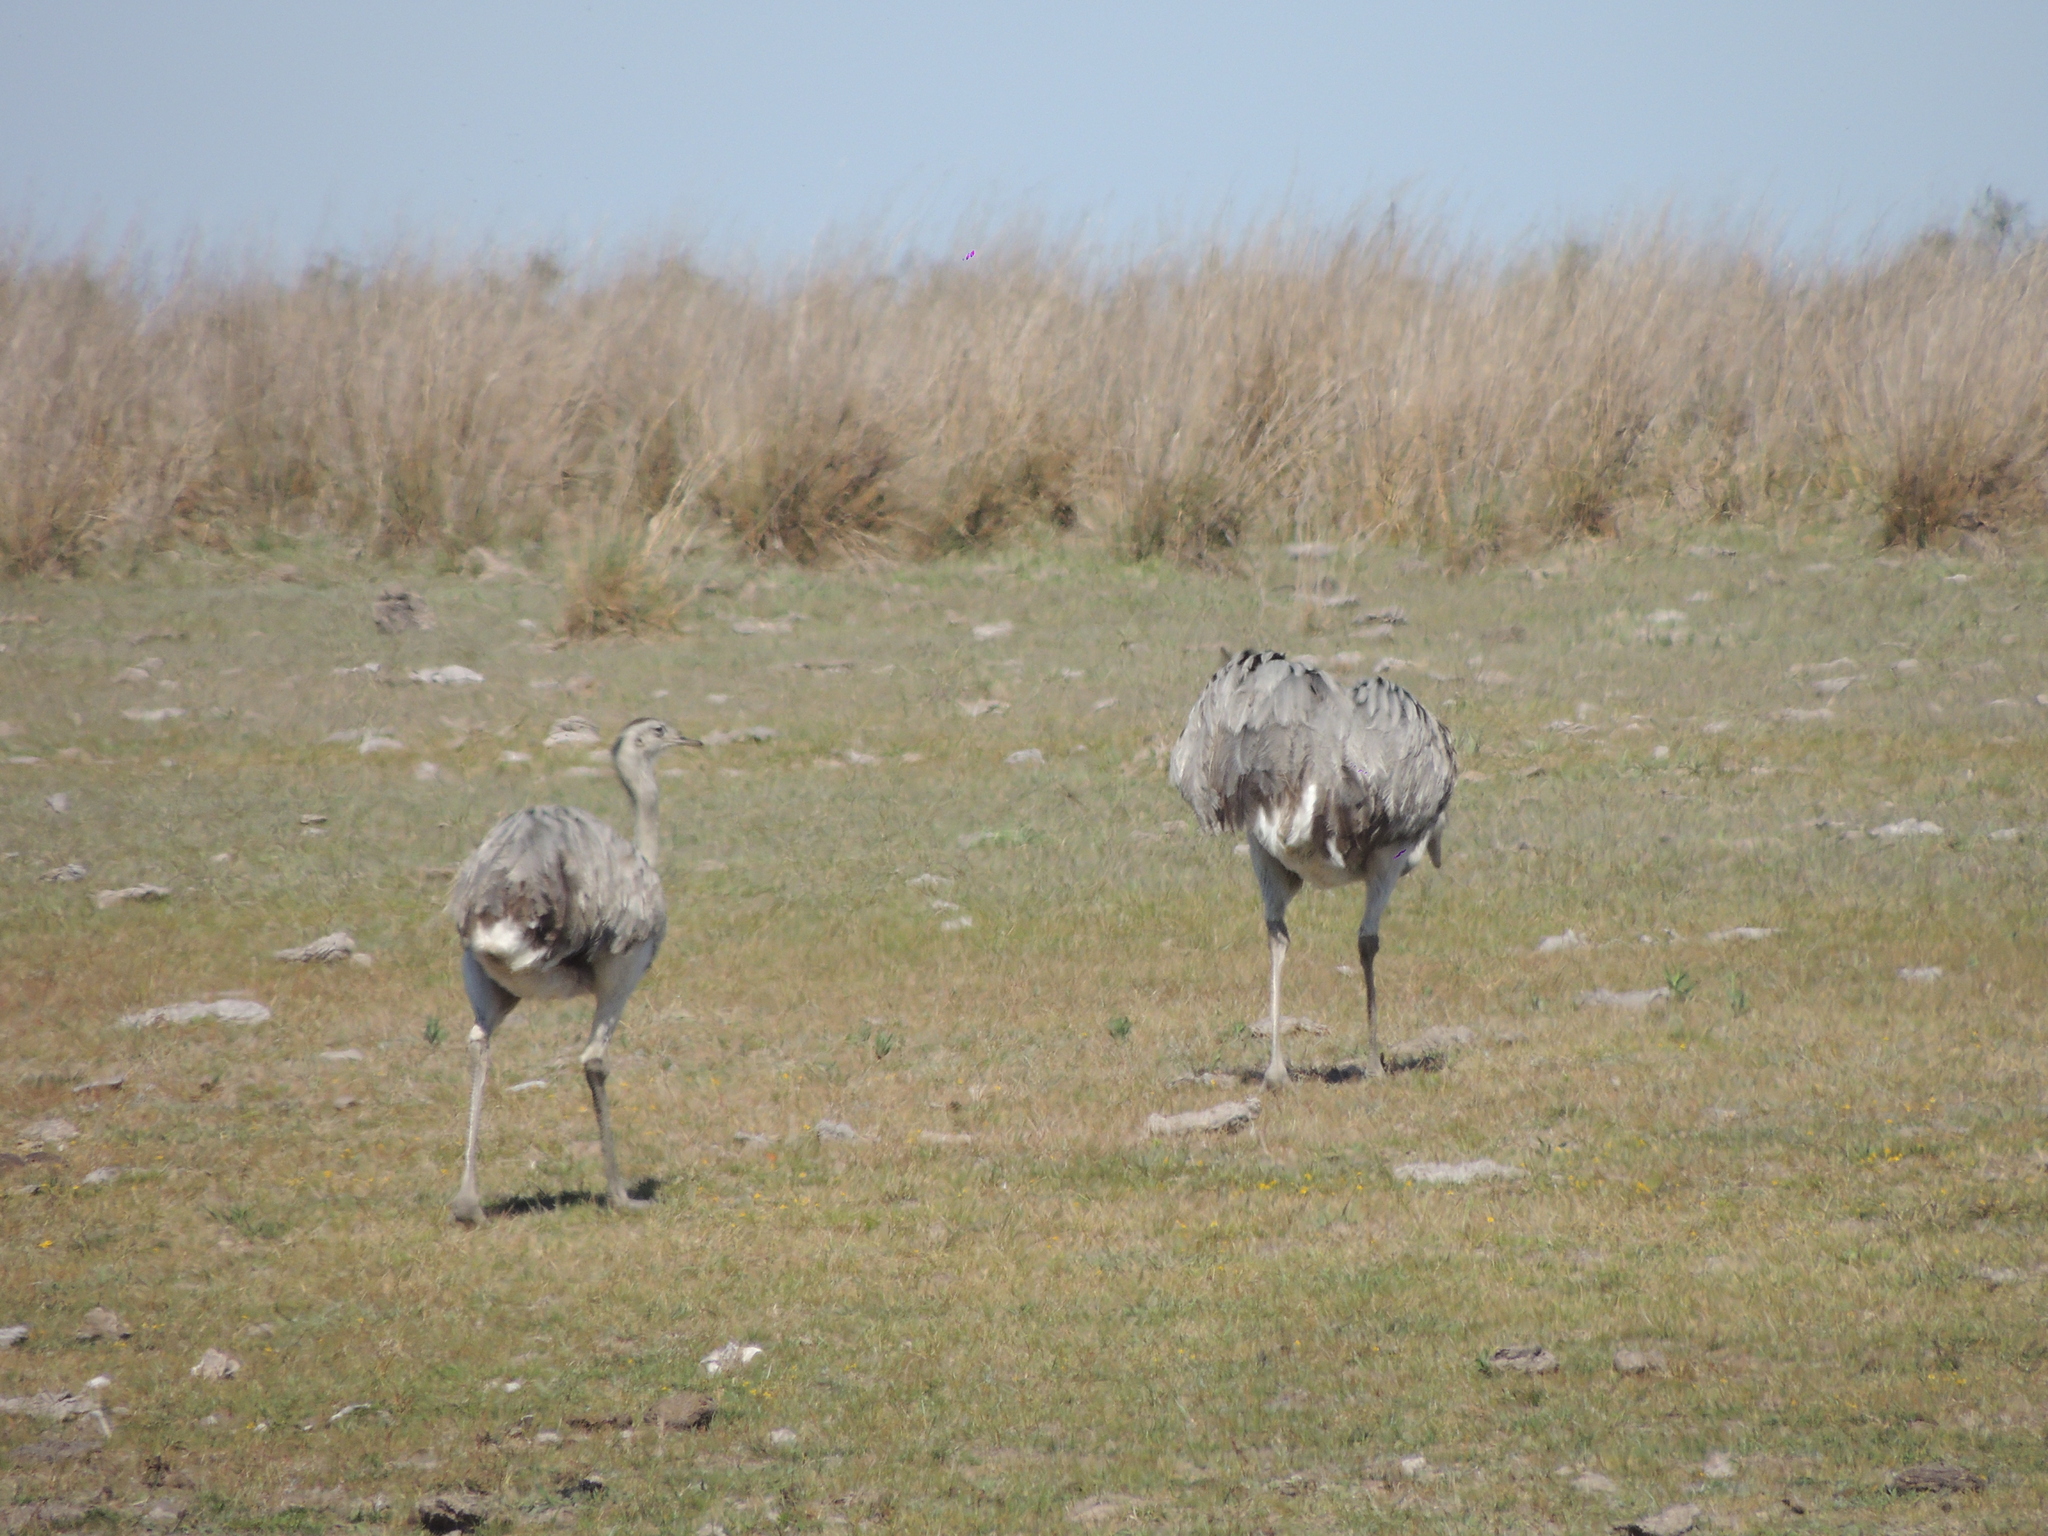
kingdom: Animalia
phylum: Chordata
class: Aves
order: Rheiformes
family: Rheidae
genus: Rhea
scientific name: Rhea americana
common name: Greater rhea
